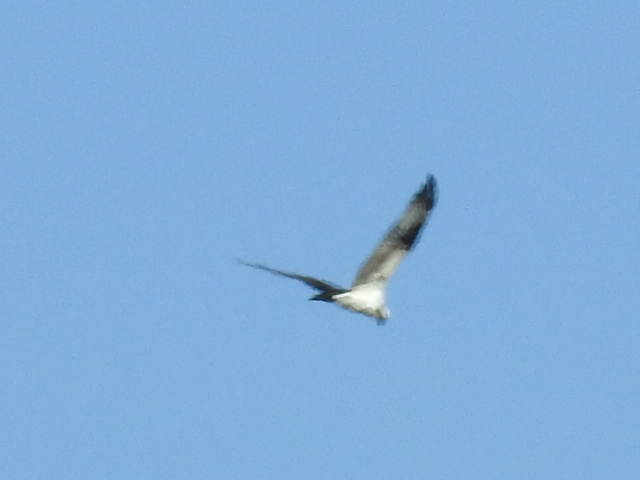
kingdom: Animalia
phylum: Chordata
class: Aves
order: Accipitriformes
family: Pandionidae
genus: Pandion
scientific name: Pandion haliaetus
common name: Osprey
